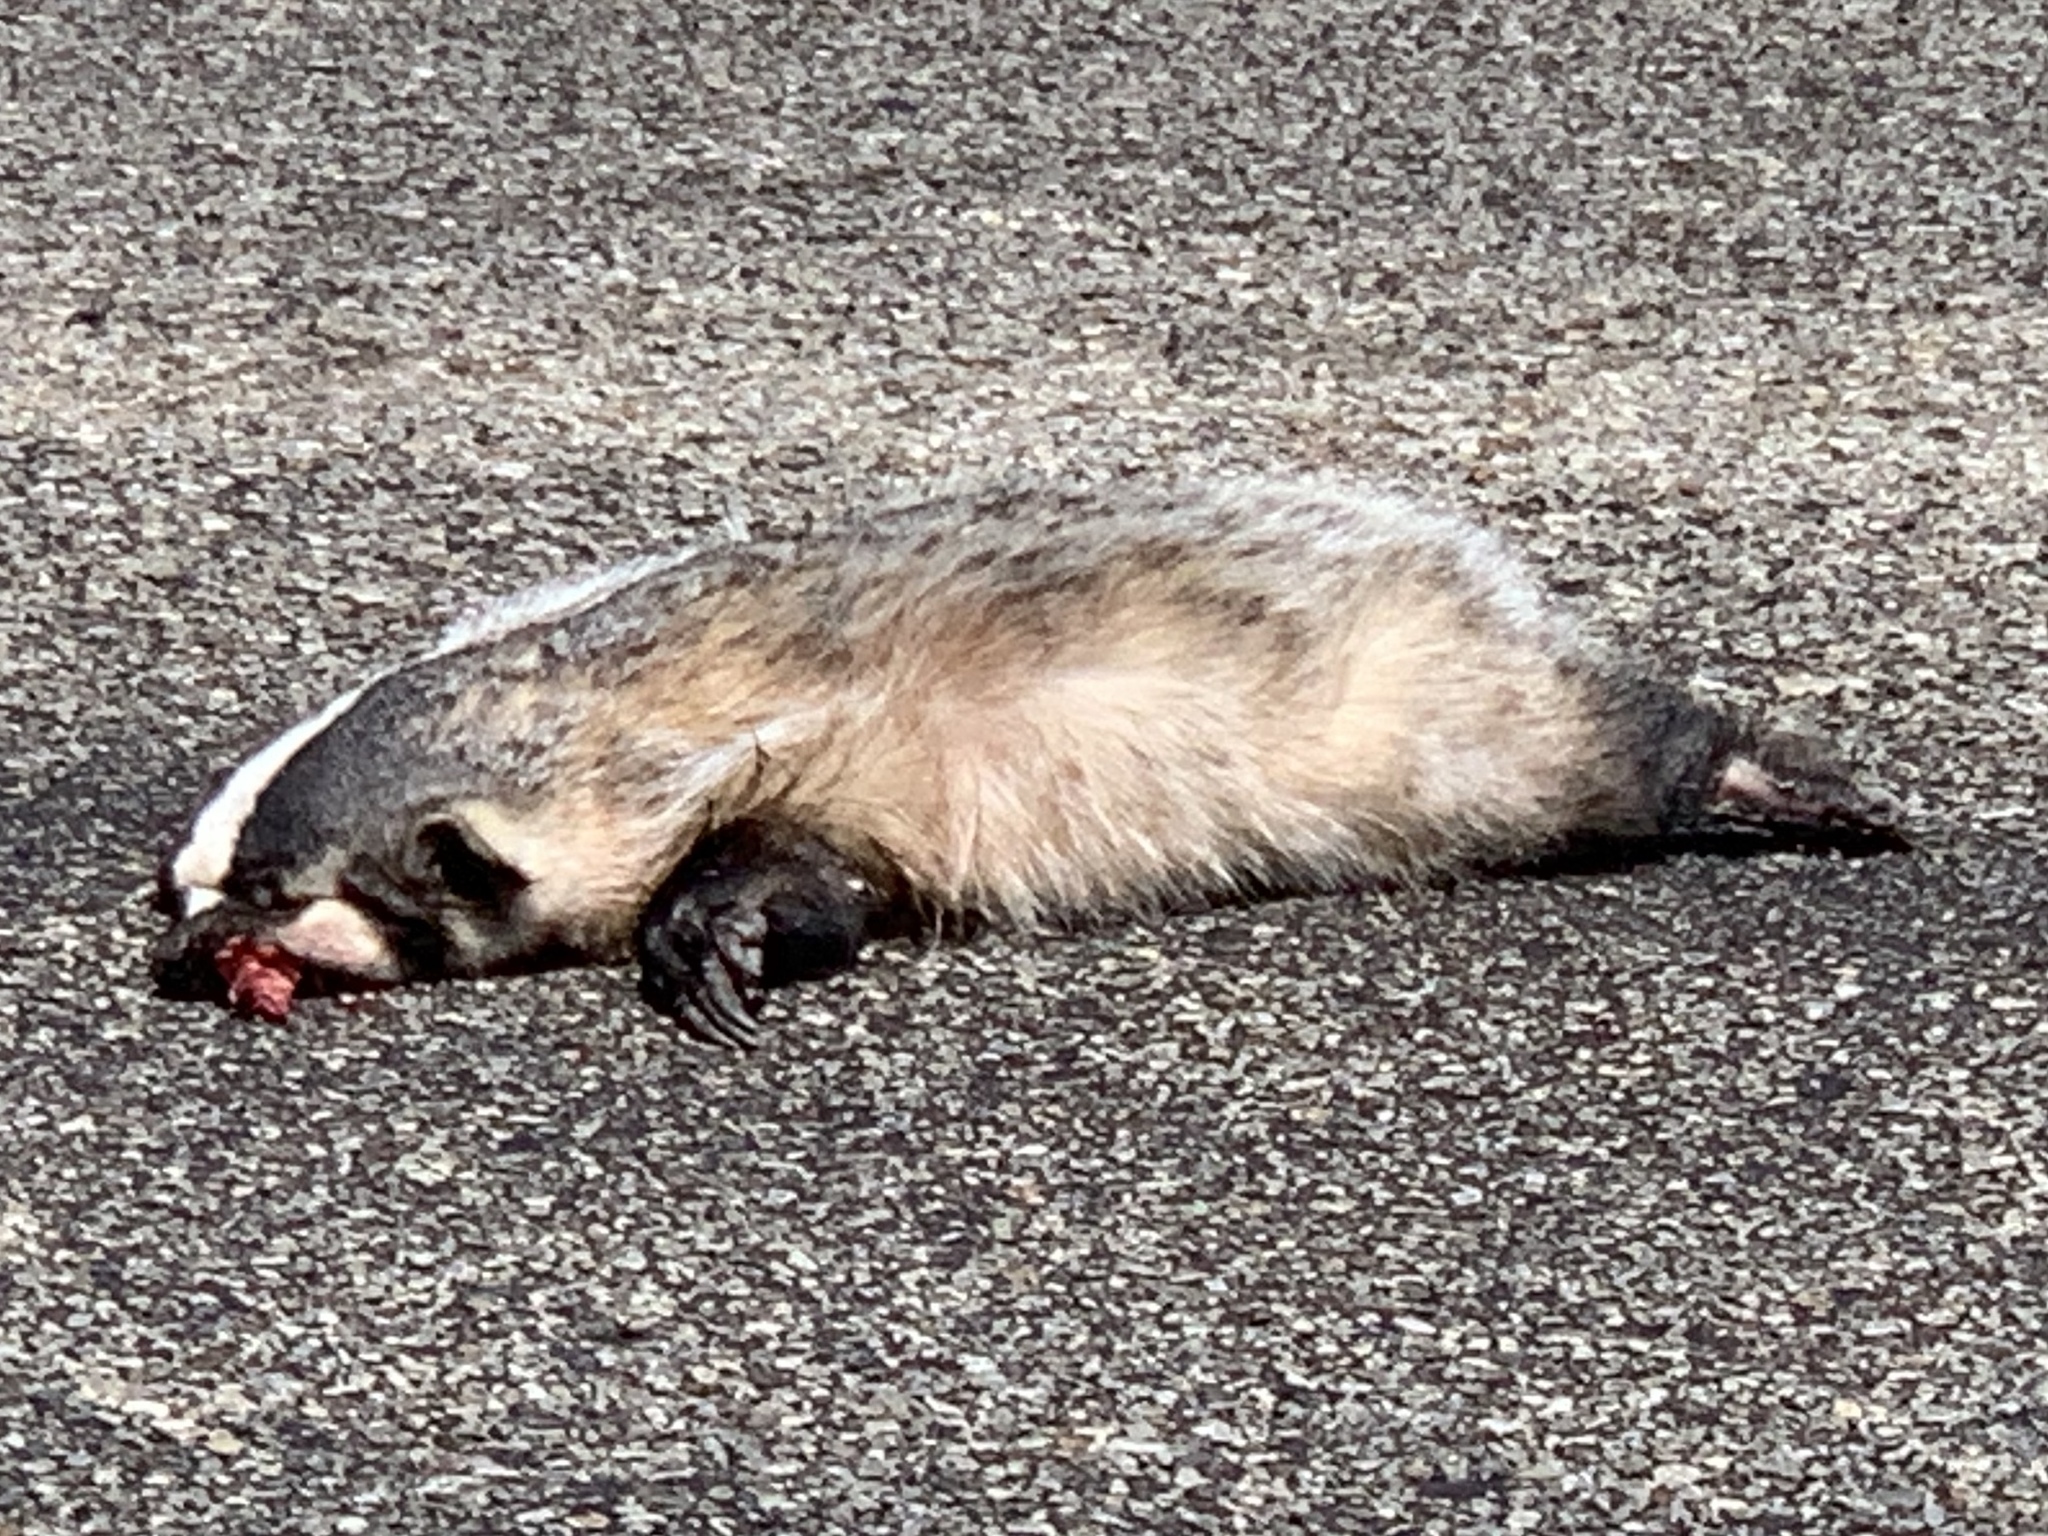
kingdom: Animalia
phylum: Chordata
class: Mammalia
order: Carnivora
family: Mustelidae
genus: Taxidea
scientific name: Taxidea taxus
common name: American badger
